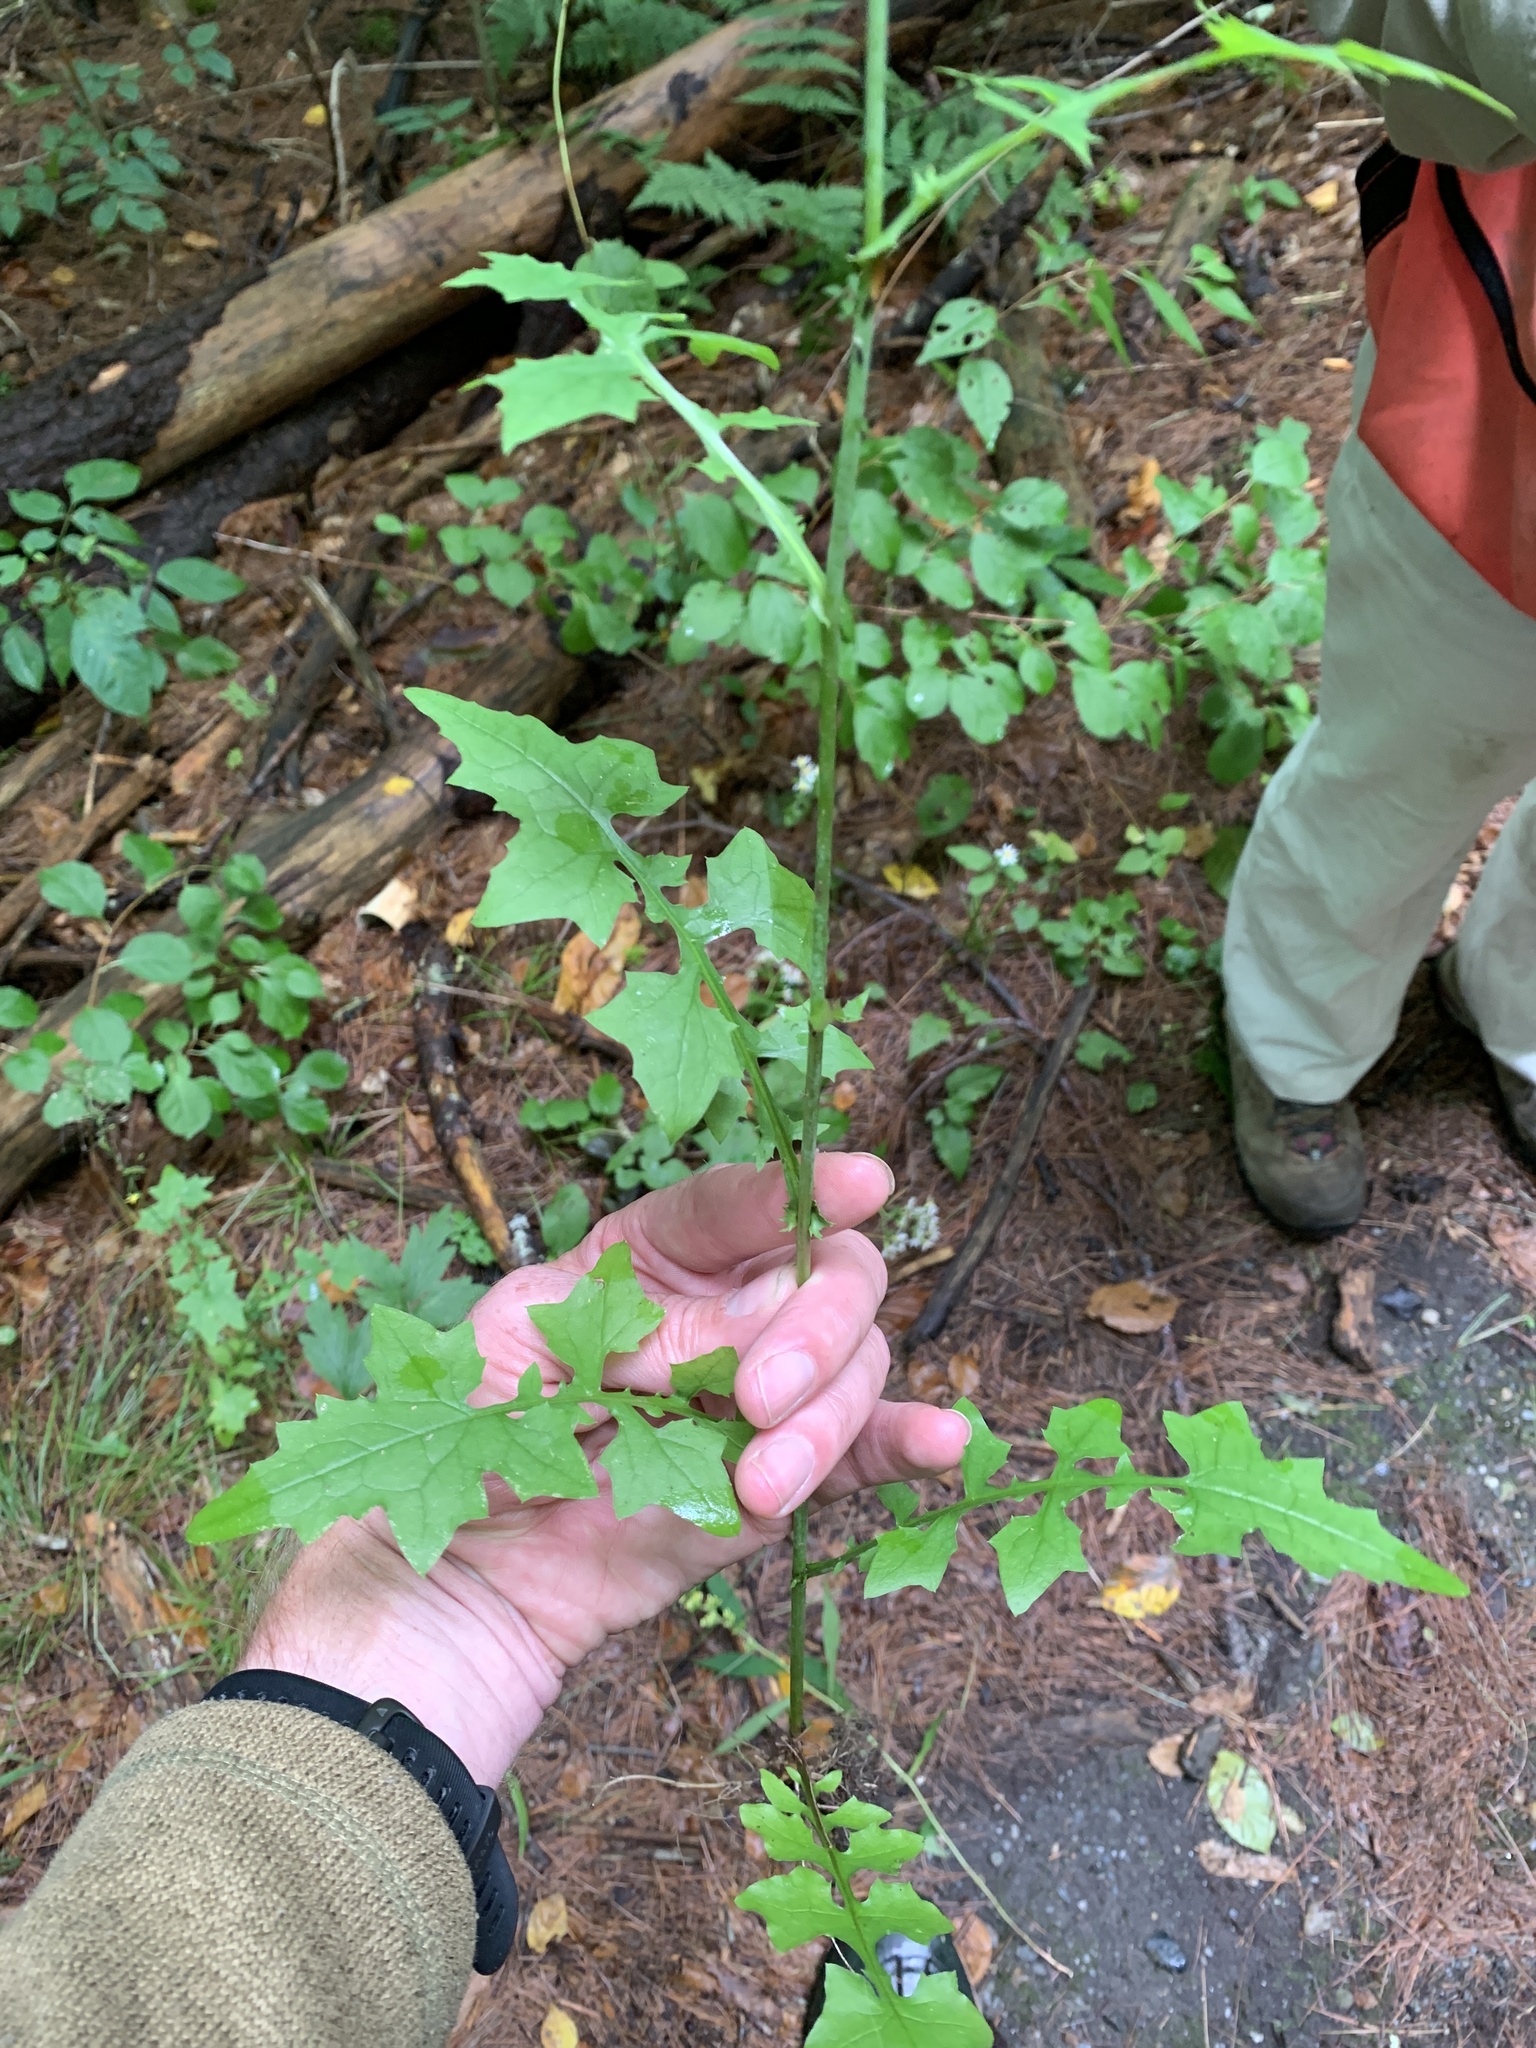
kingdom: Plantae
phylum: Tracheophyta
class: Magnoliopsida
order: Asterales
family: Asteraceae
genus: Mycelis
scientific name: Mycelis muralis
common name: Wall lettuce
